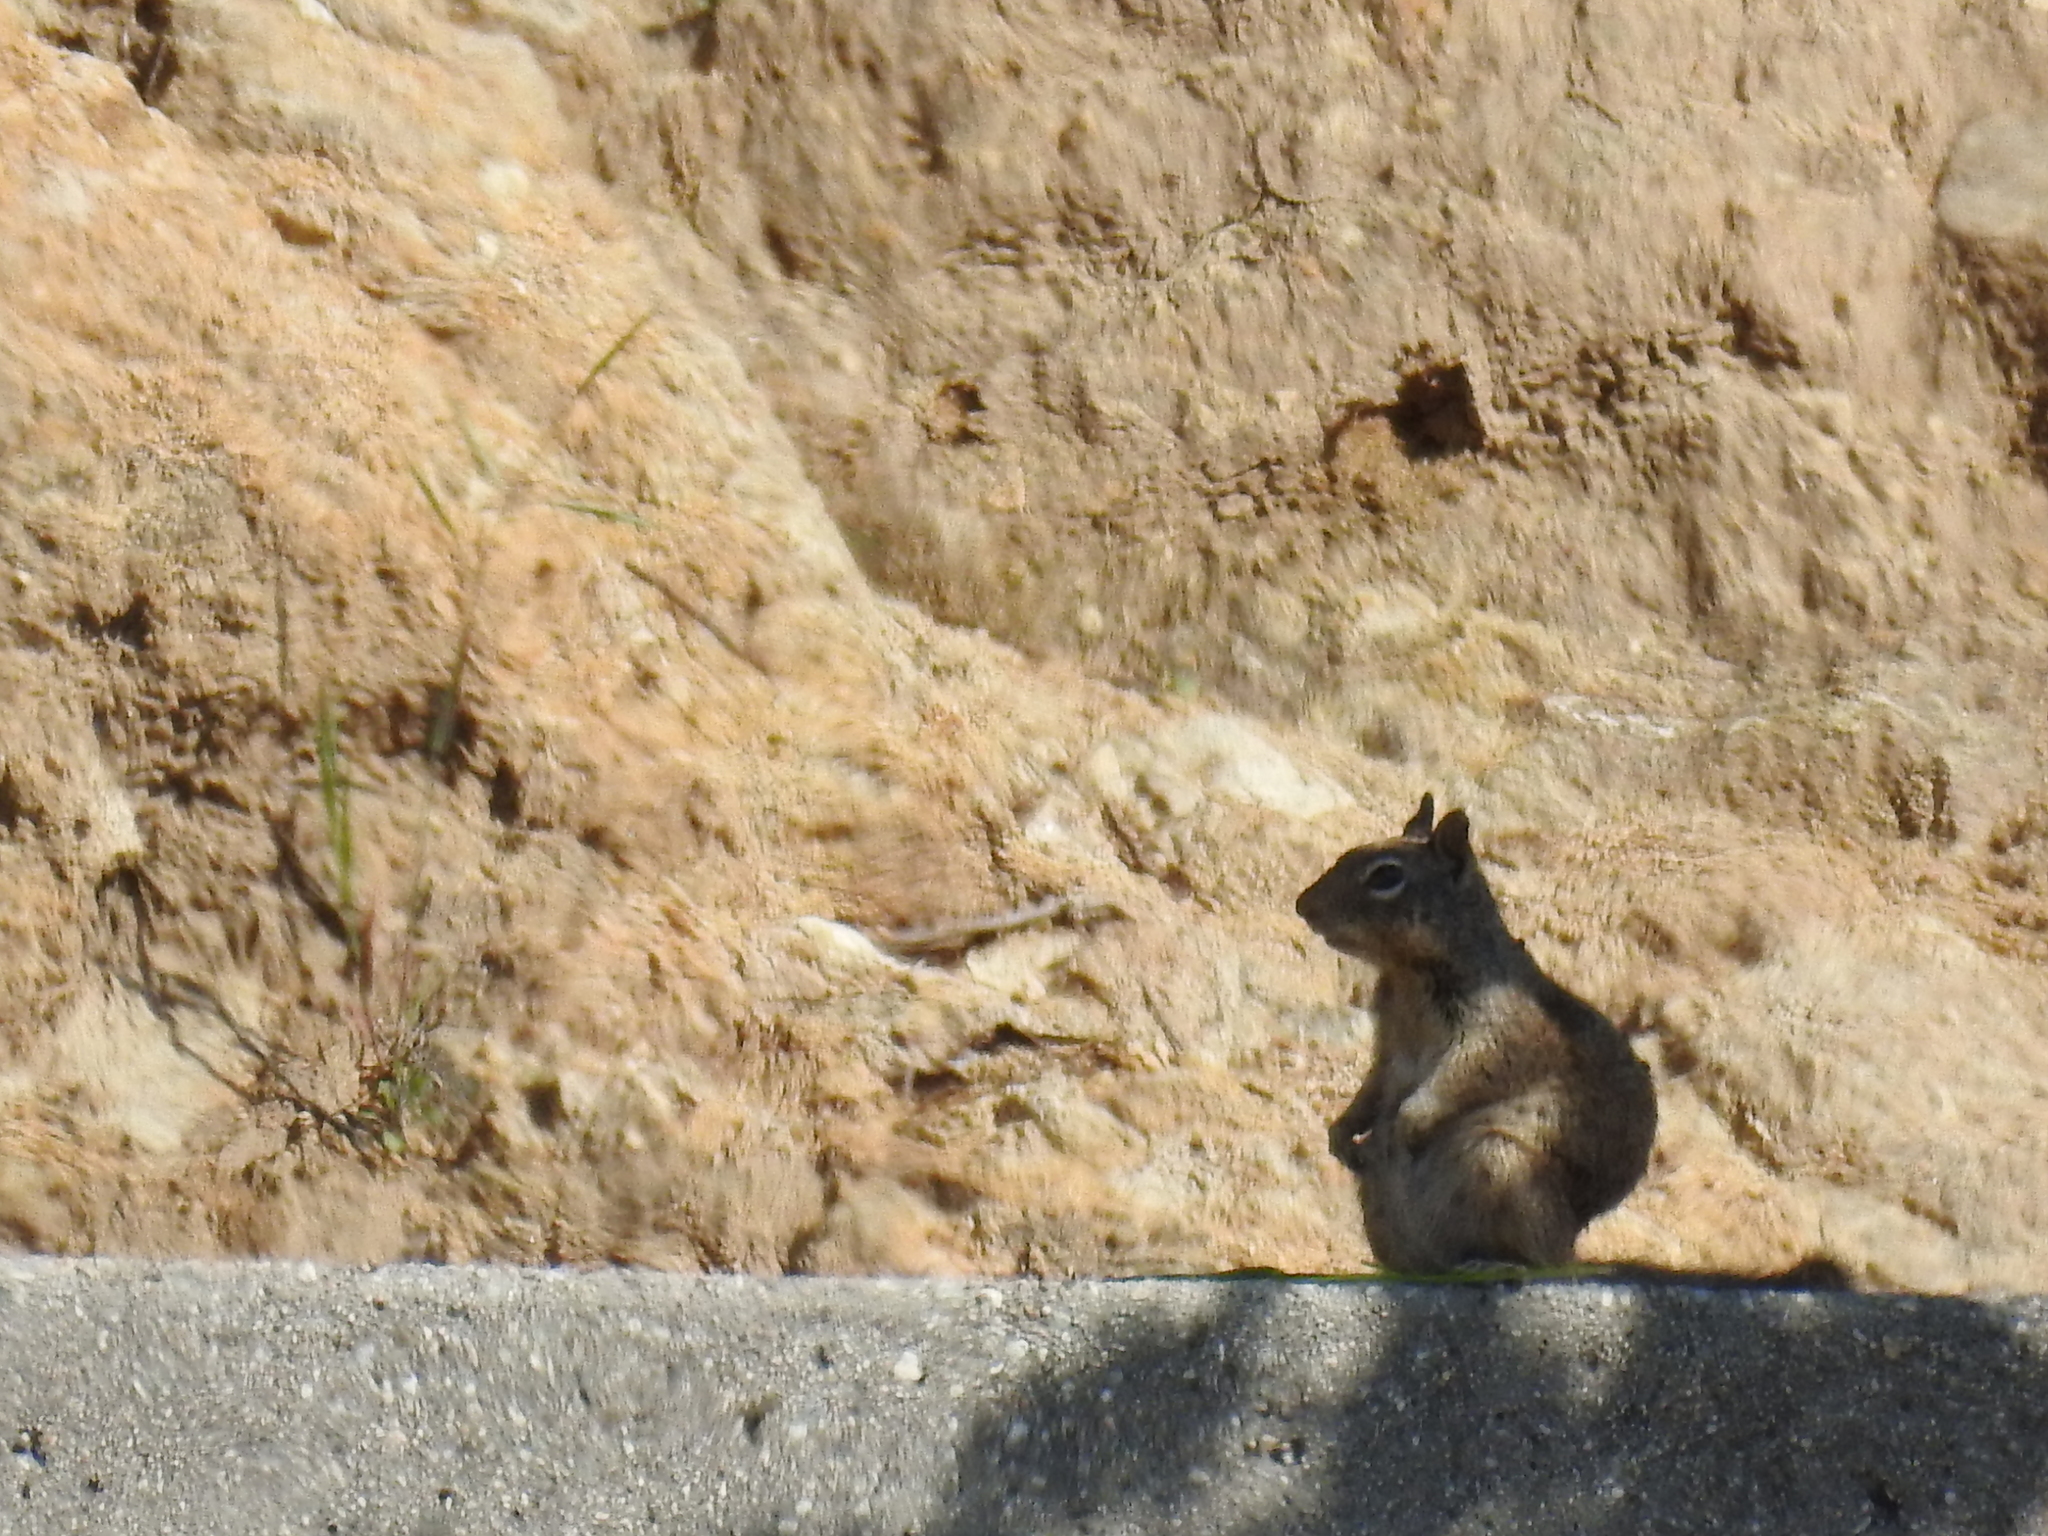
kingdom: Animalia
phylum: Chordata
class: Mammalia
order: Rodentia
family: Sciuridae
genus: Otospermophilus
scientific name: Otospermophilus beecheyi
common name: California ground squirrel
